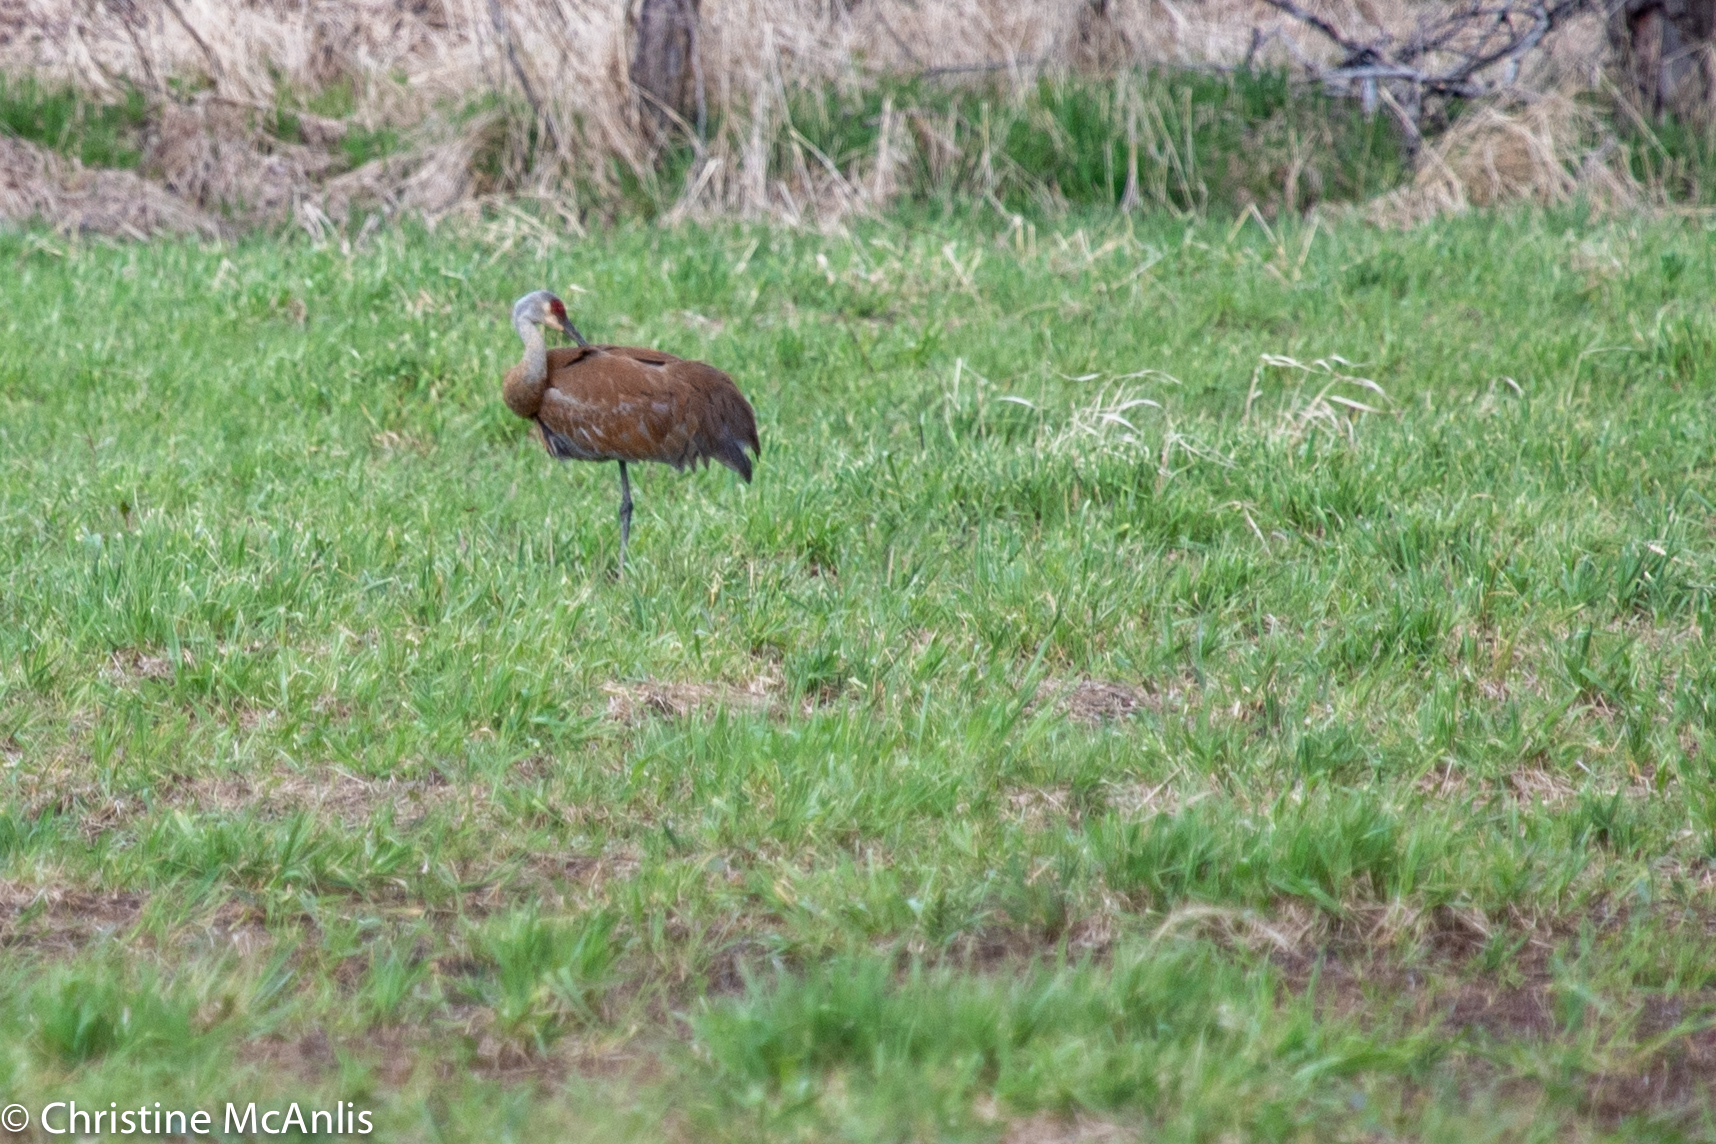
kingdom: Animalia
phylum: Chordata
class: Aves
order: Gruiformes
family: Gruidae
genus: Grus
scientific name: Grus canadensis
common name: Sandhill crane
